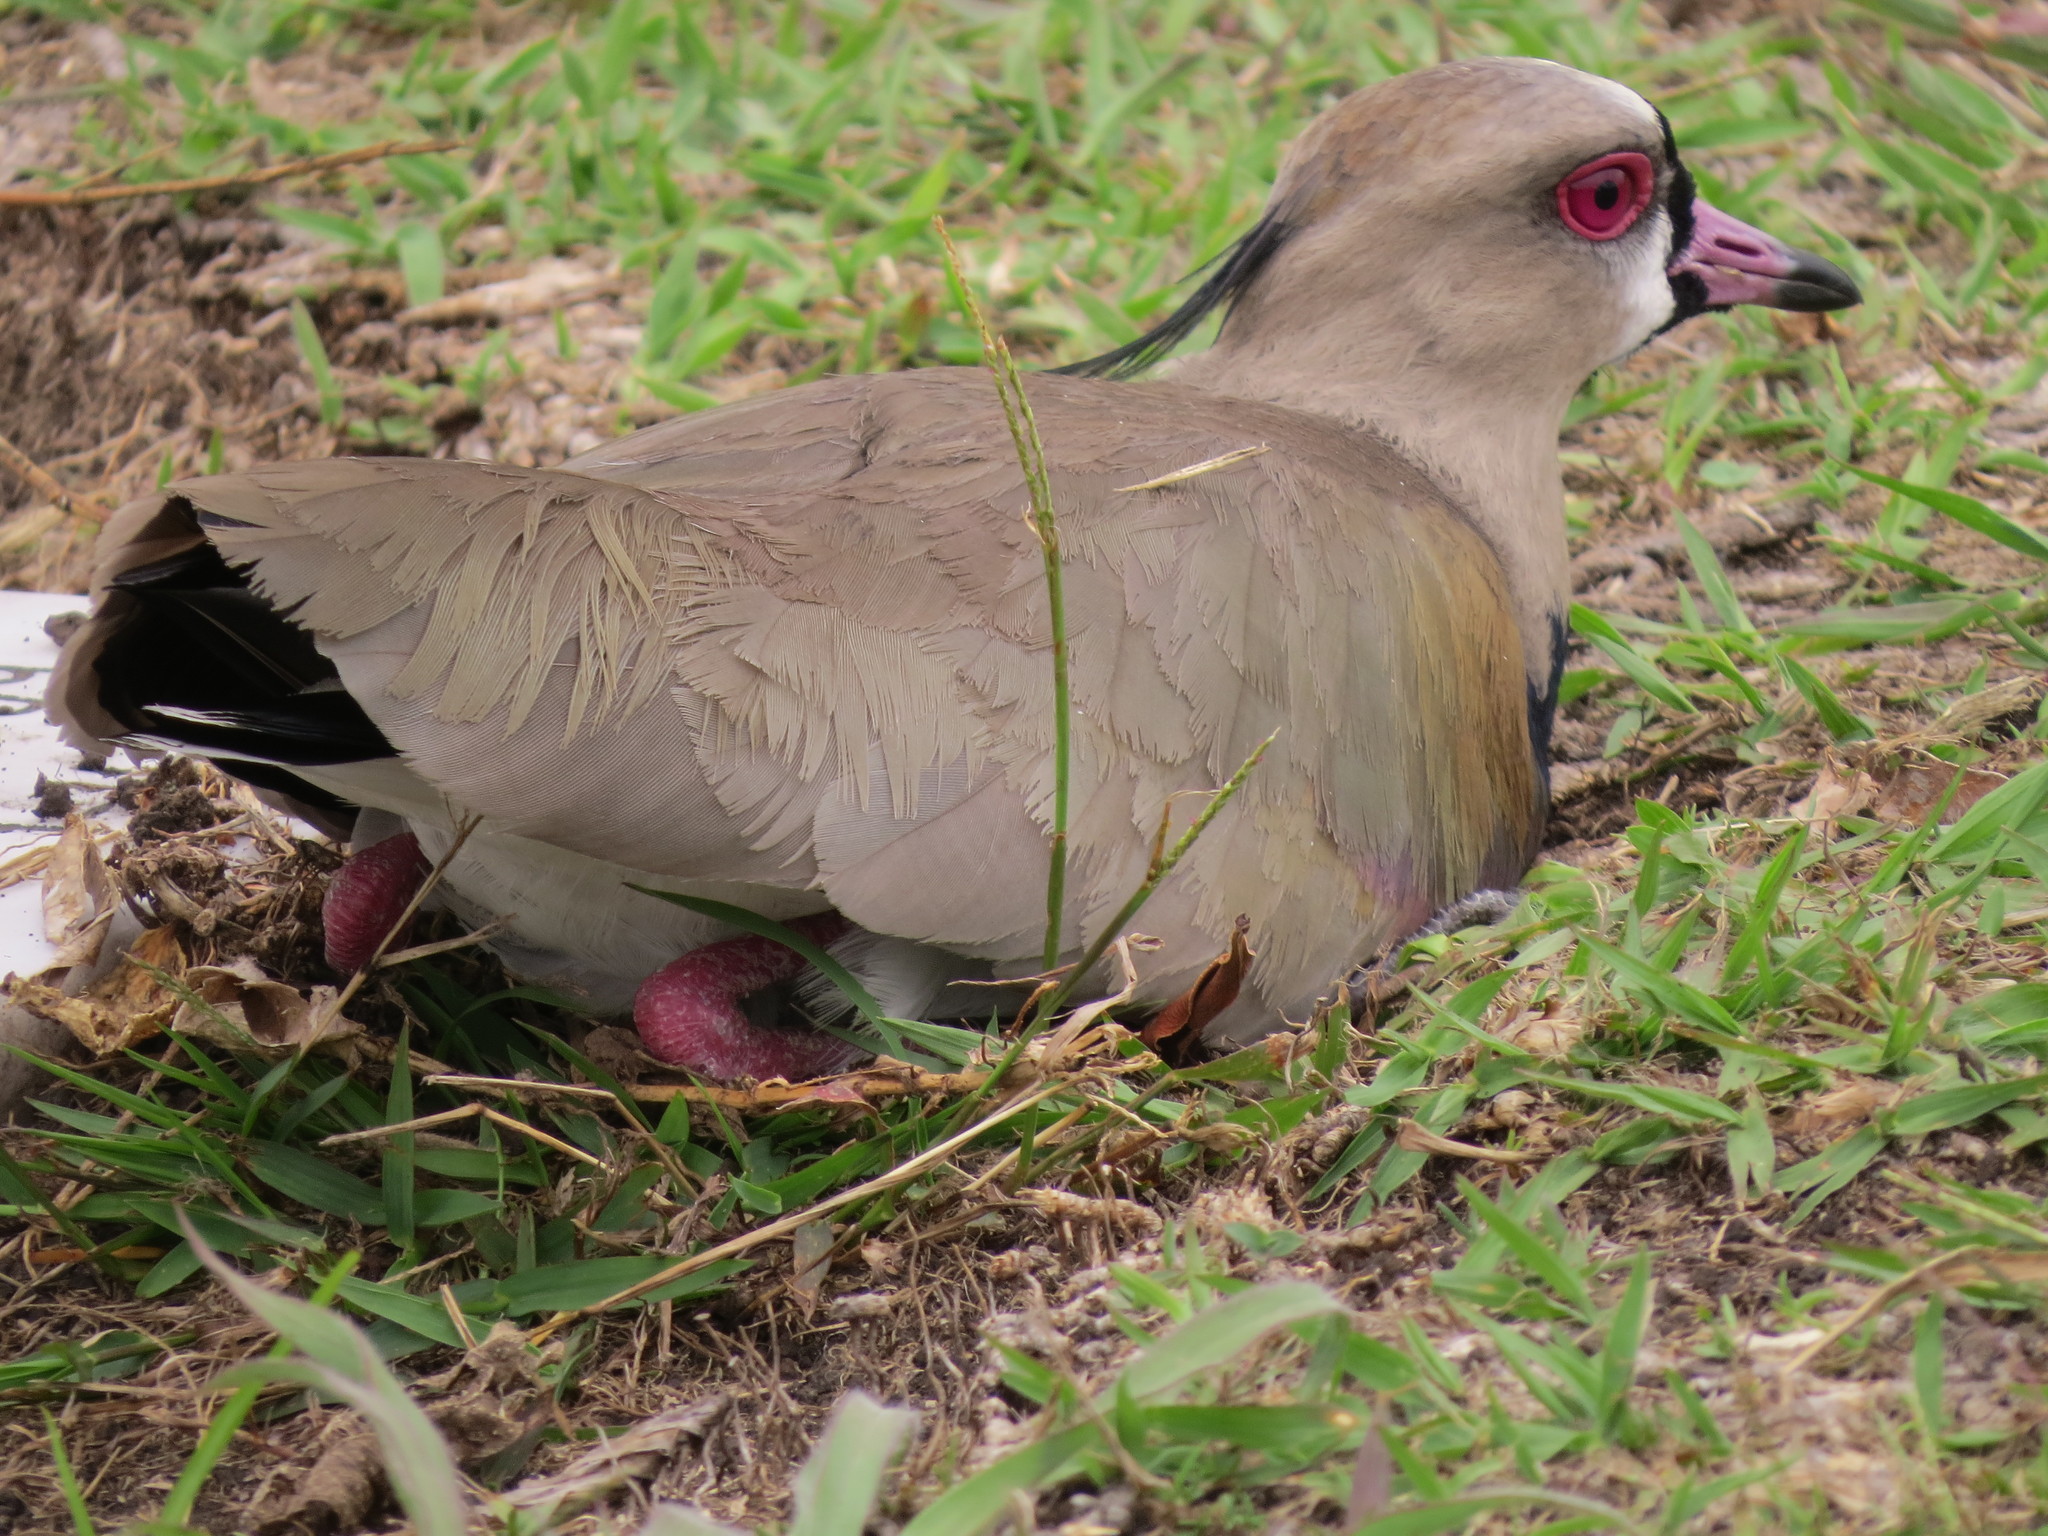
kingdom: Animalia
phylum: Chordata
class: Aves
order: Charadriiformes
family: Charadriidae
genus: Vanellus
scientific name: Vanellus chilensis
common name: Southern lapwing
